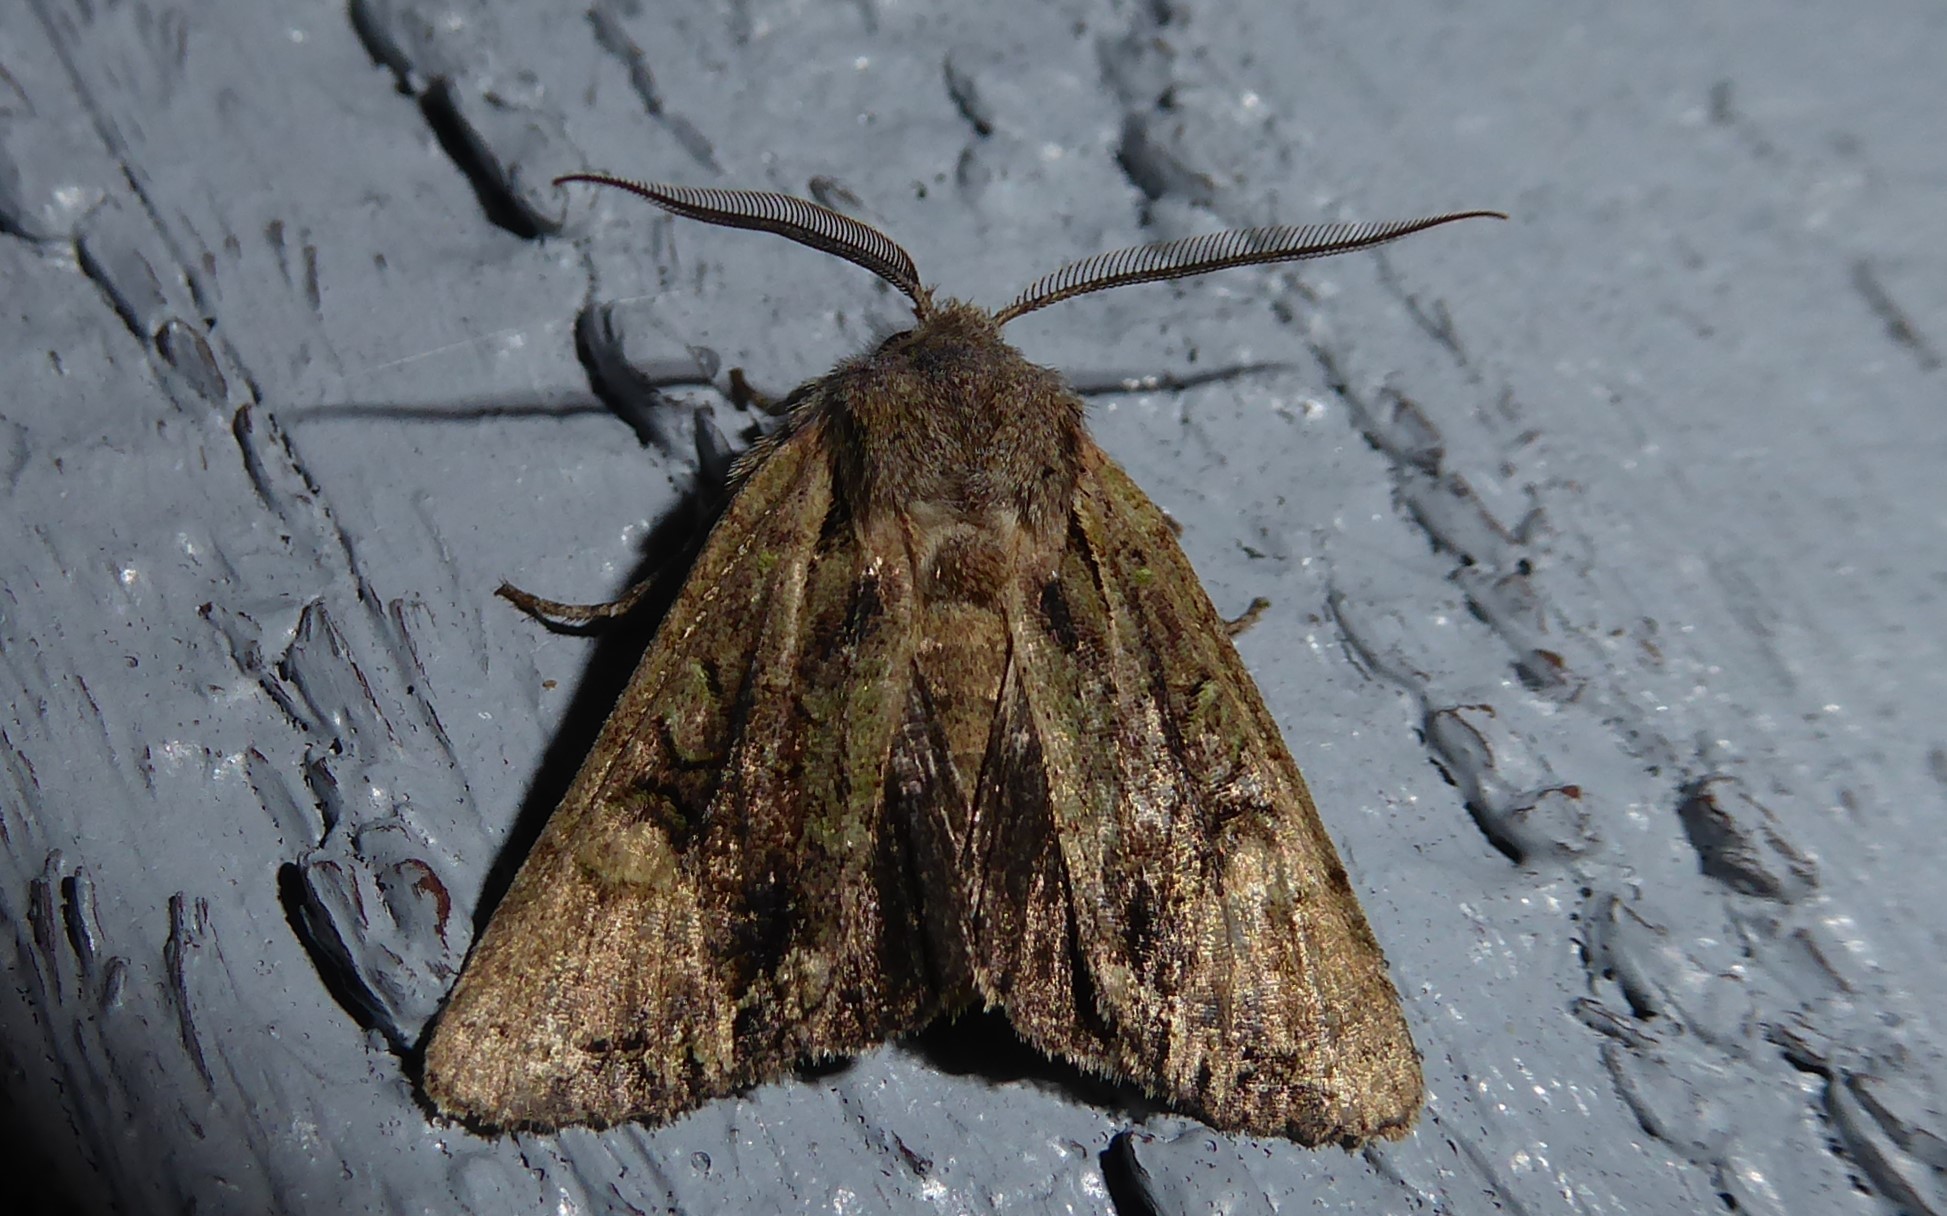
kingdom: Animalia
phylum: Arthropoda
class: Insecta
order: Lepidoptera
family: Noctuidae
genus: Ichneutica
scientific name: Ichneutica skelloni
